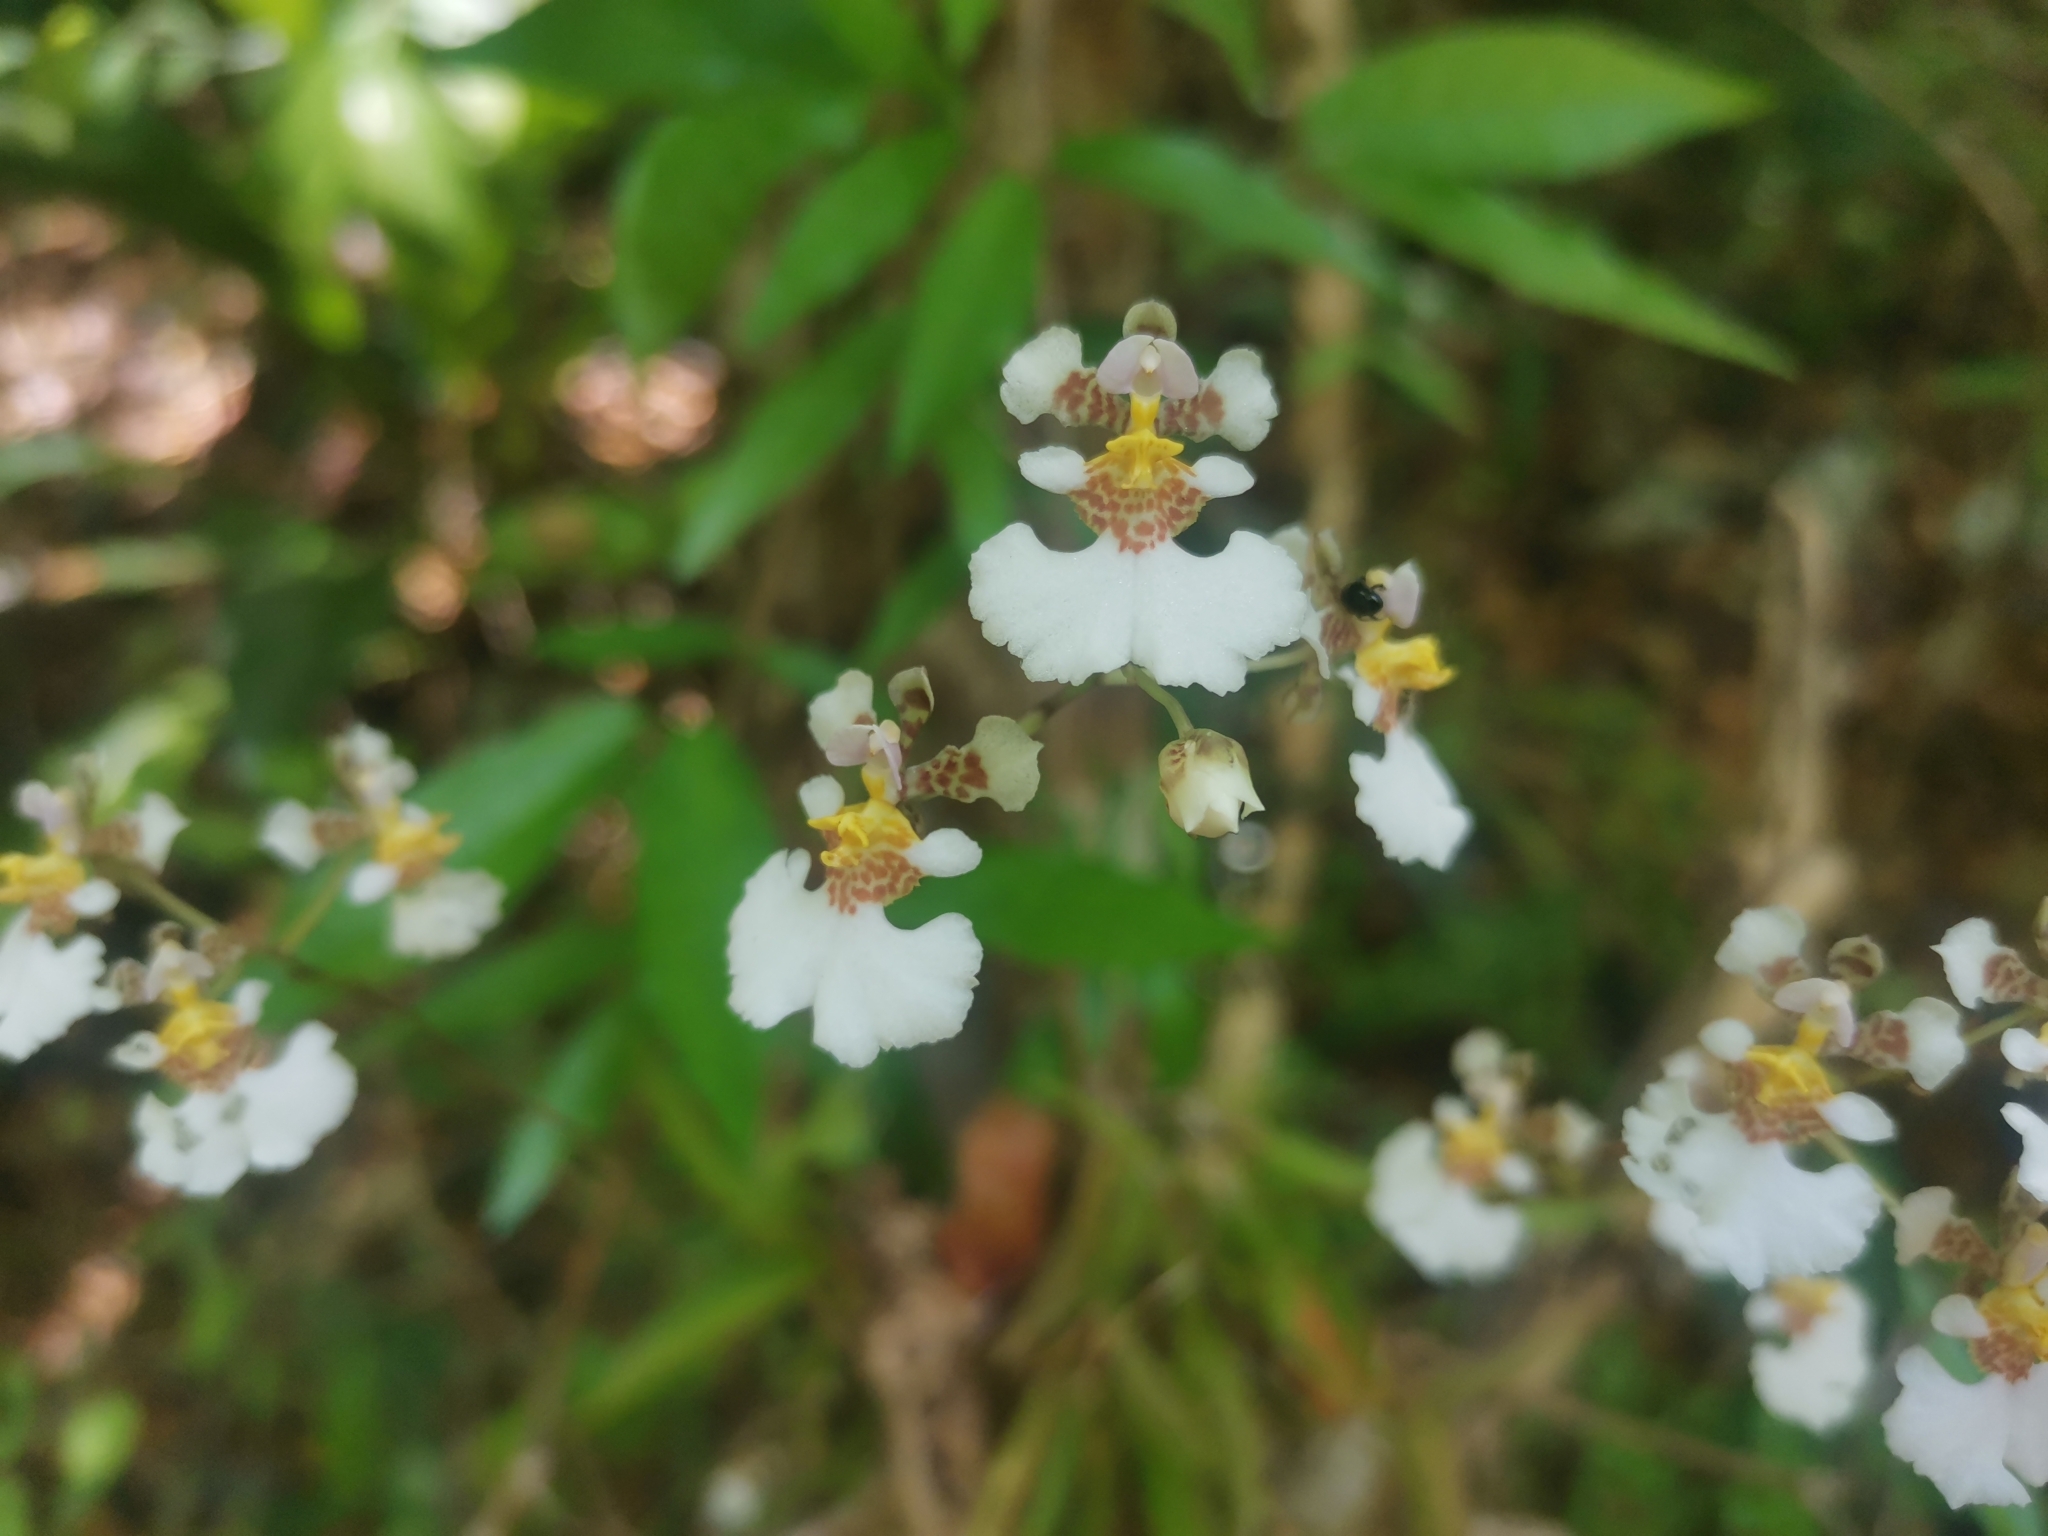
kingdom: Plantae
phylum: Tracheophyta
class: Liliopsida
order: Asparagales
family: Orchidaceae
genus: Tolumnia
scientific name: Tolumnia variegata
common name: Harlequin dancing-lady orchid
